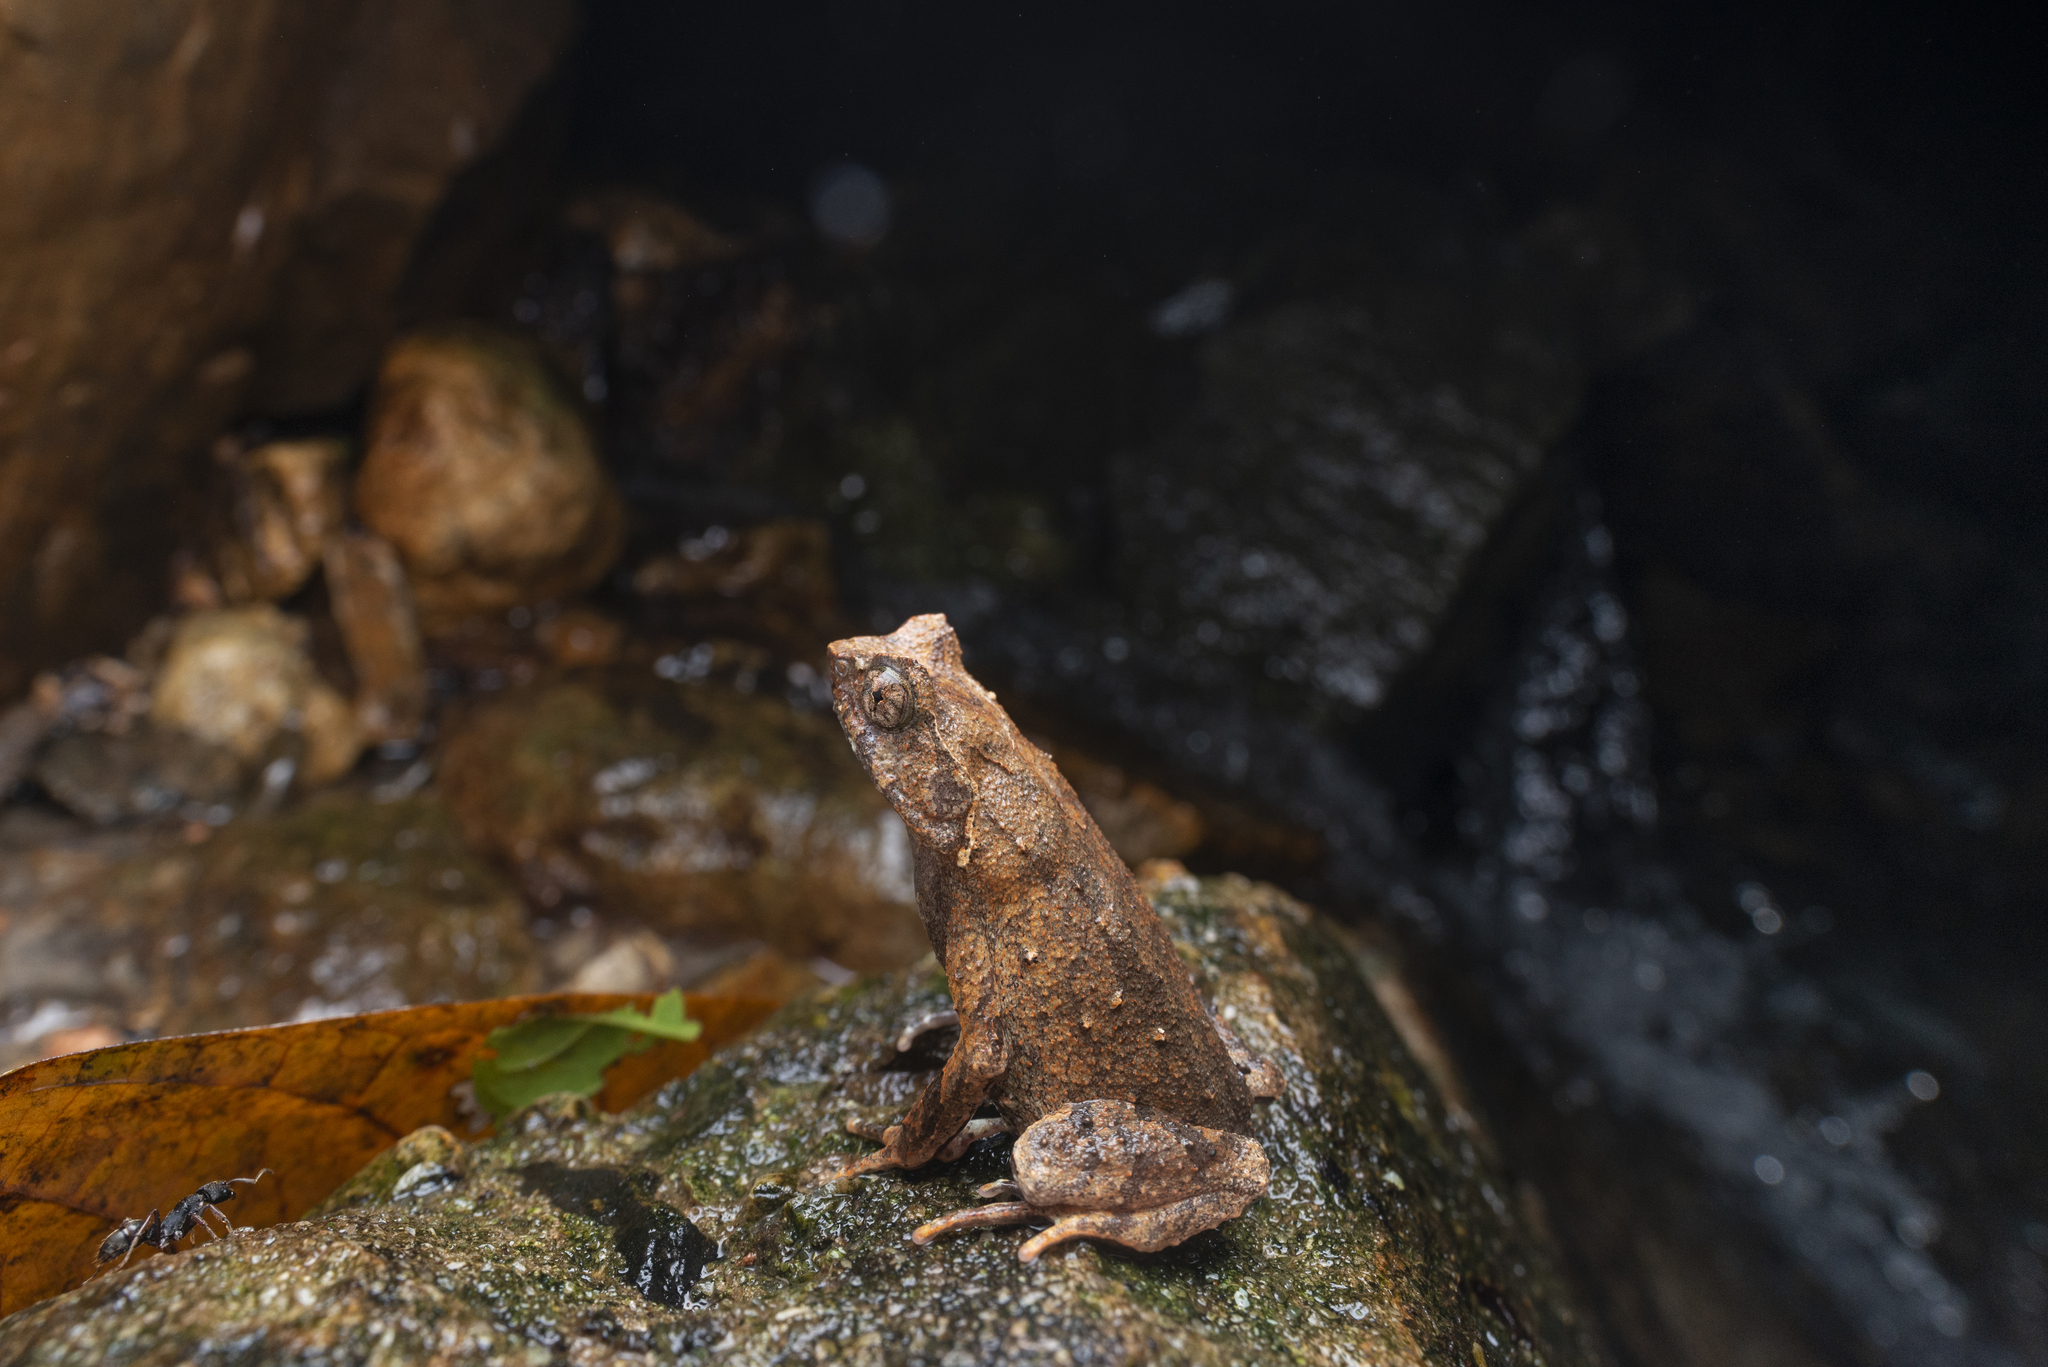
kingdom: Animalia
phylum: Chordata
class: Amphibia
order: Anura
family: Megophryidae
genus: Megophrys
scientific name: Megophrys brachykolos
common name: Short-legged horned toad
